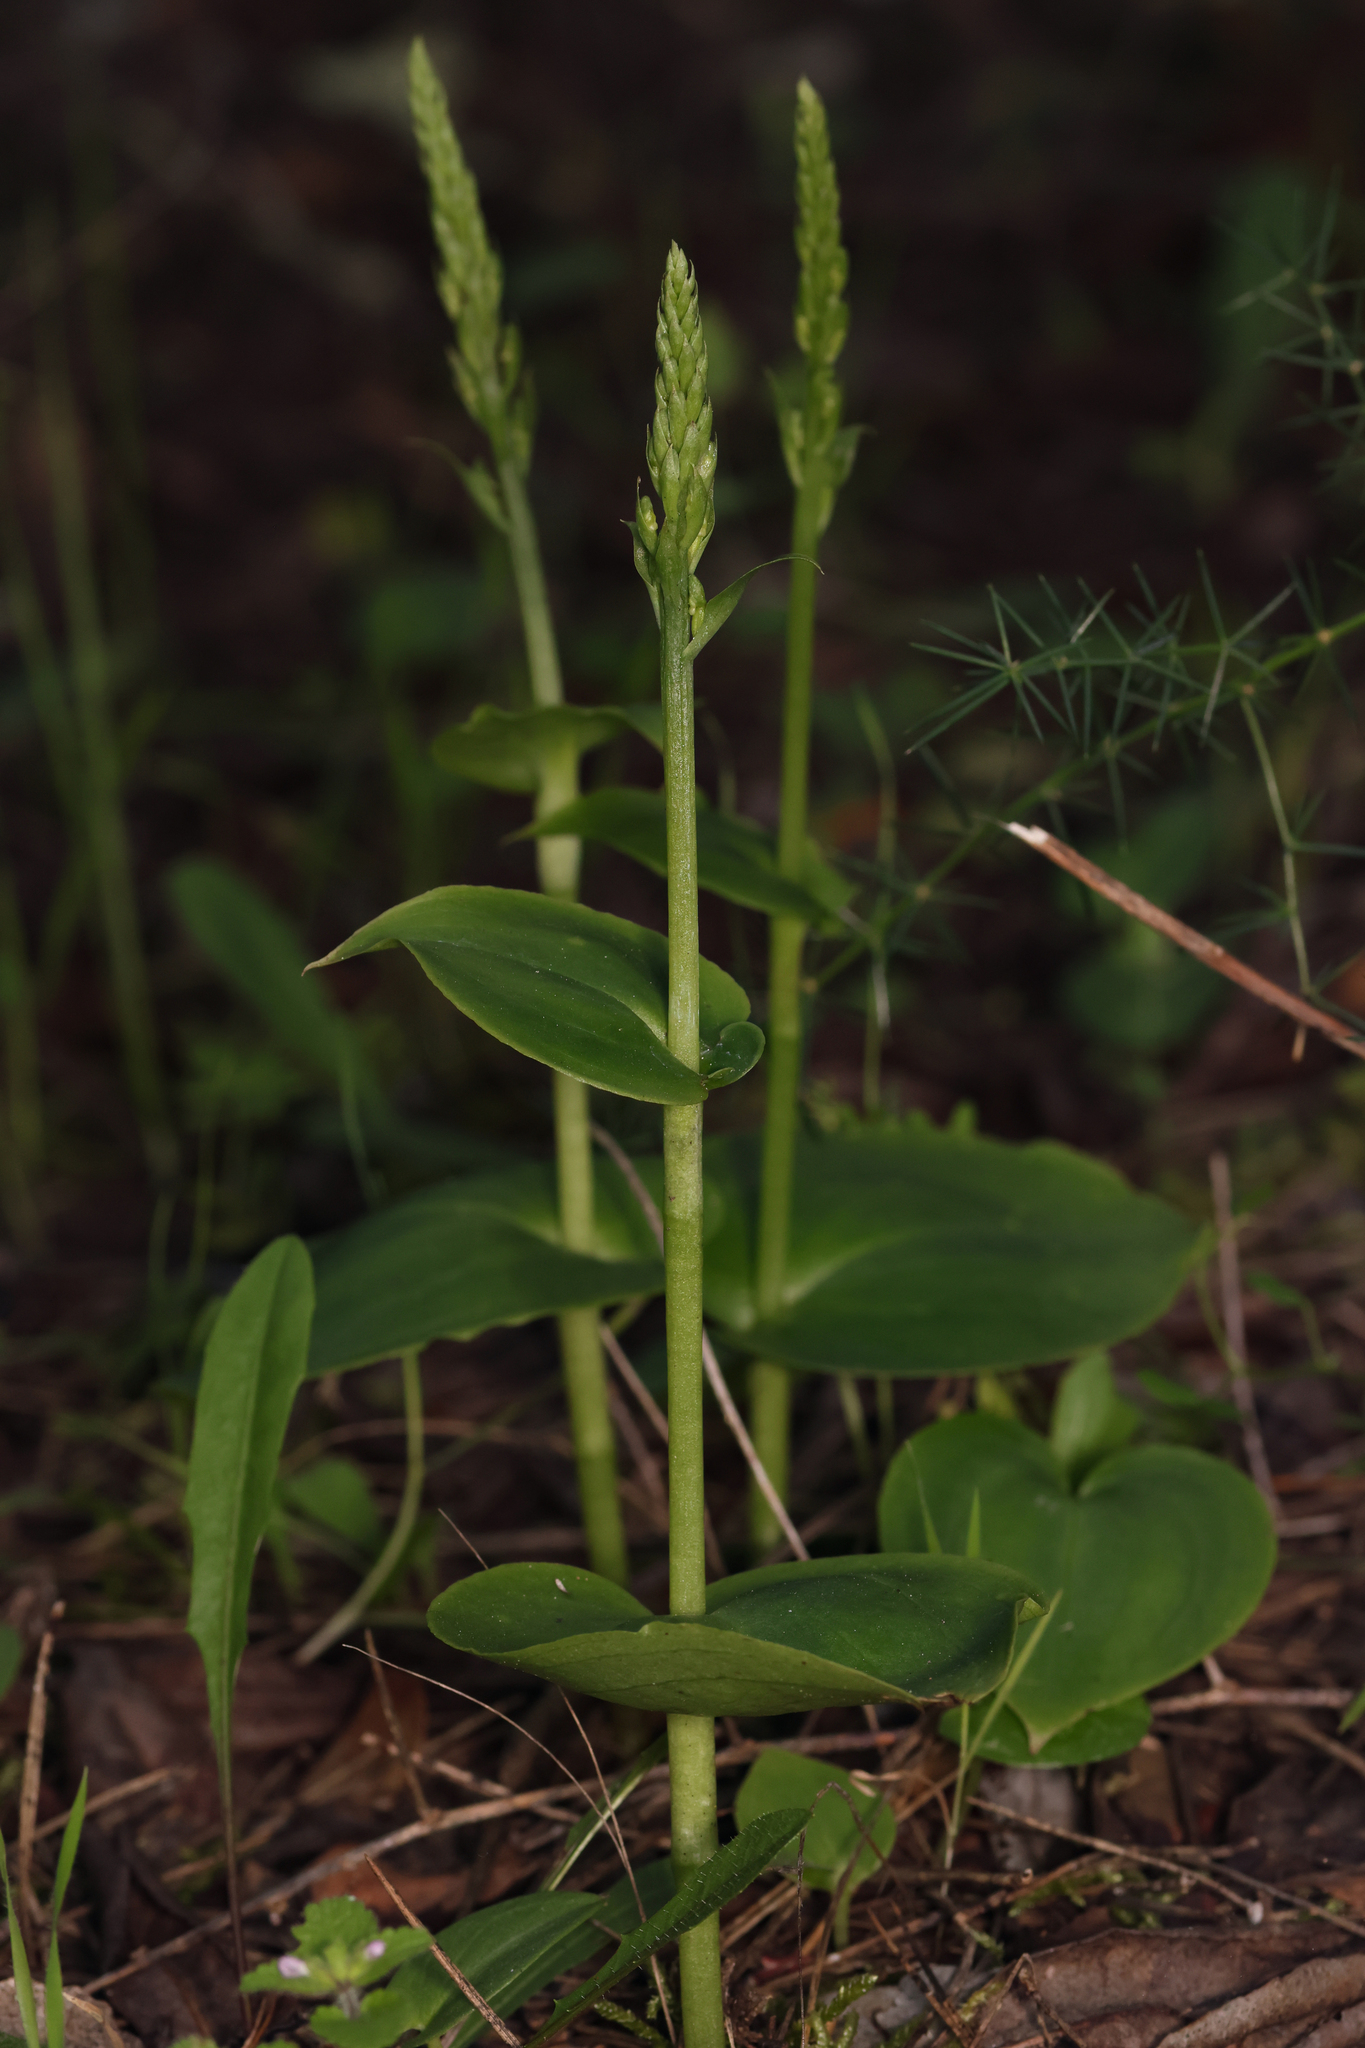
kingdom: Plantae
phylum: Tracheophyta
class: Liliopsida
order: Asparagales
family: Orchidaceae
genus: Gennaria
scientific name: Gennaria diphylla
